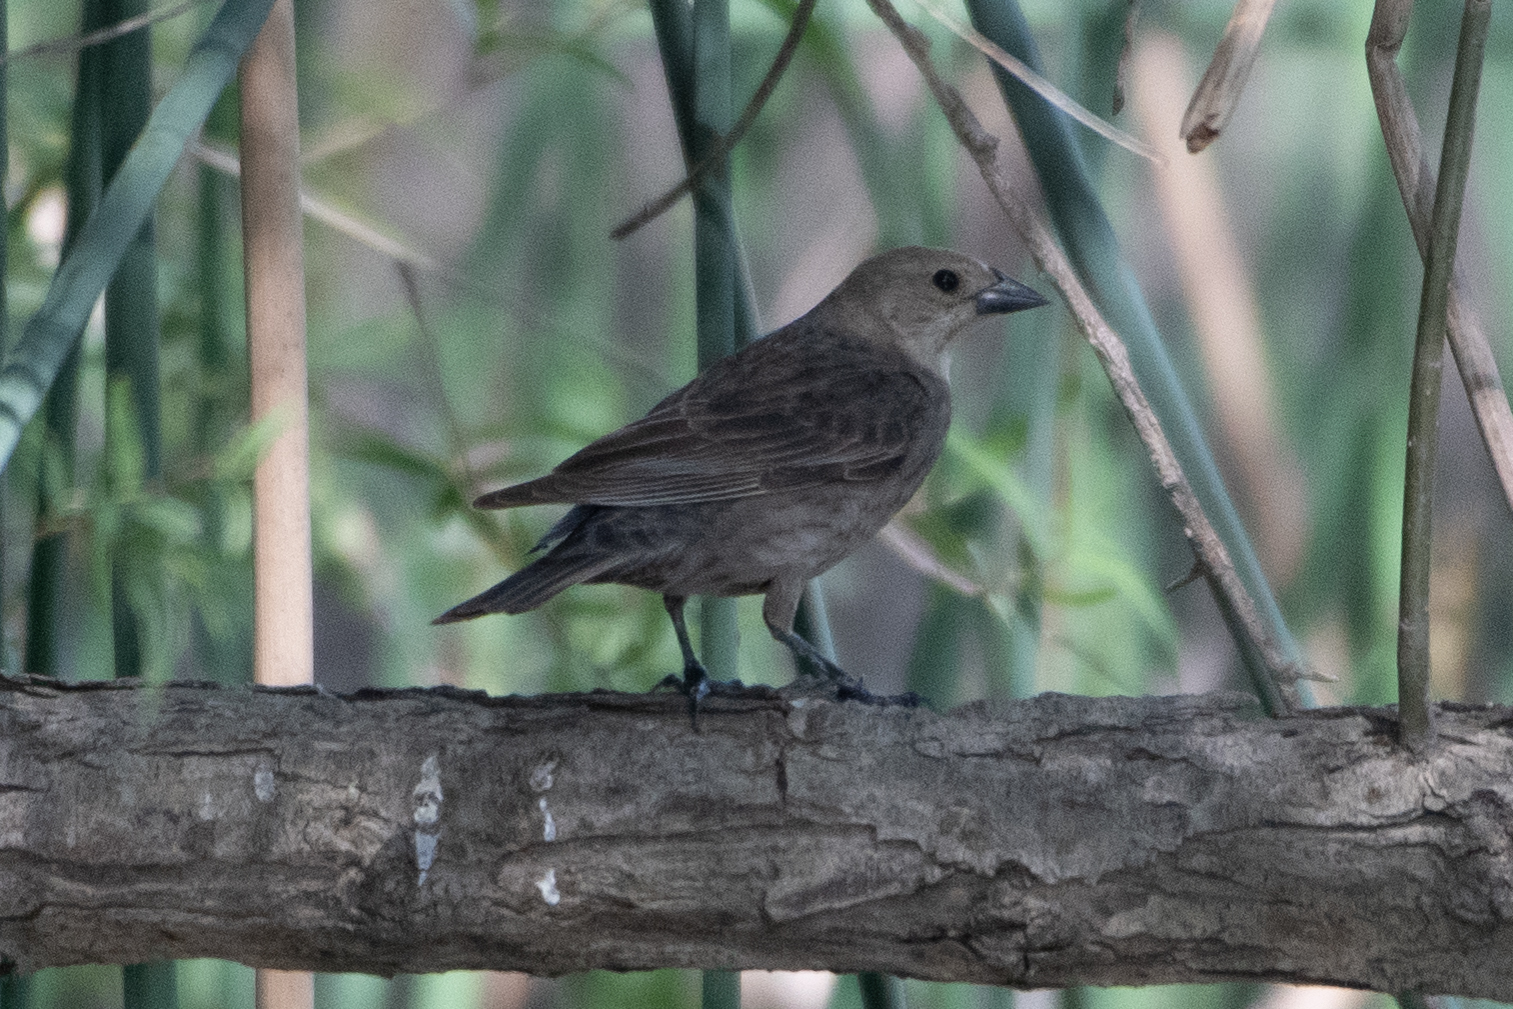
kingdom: Animalia
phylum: Chordata
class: Aves
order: Passeriformes
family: Icteridae
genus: Molothrus
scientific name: Molothrus ater
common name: Brown-headed cowbird
